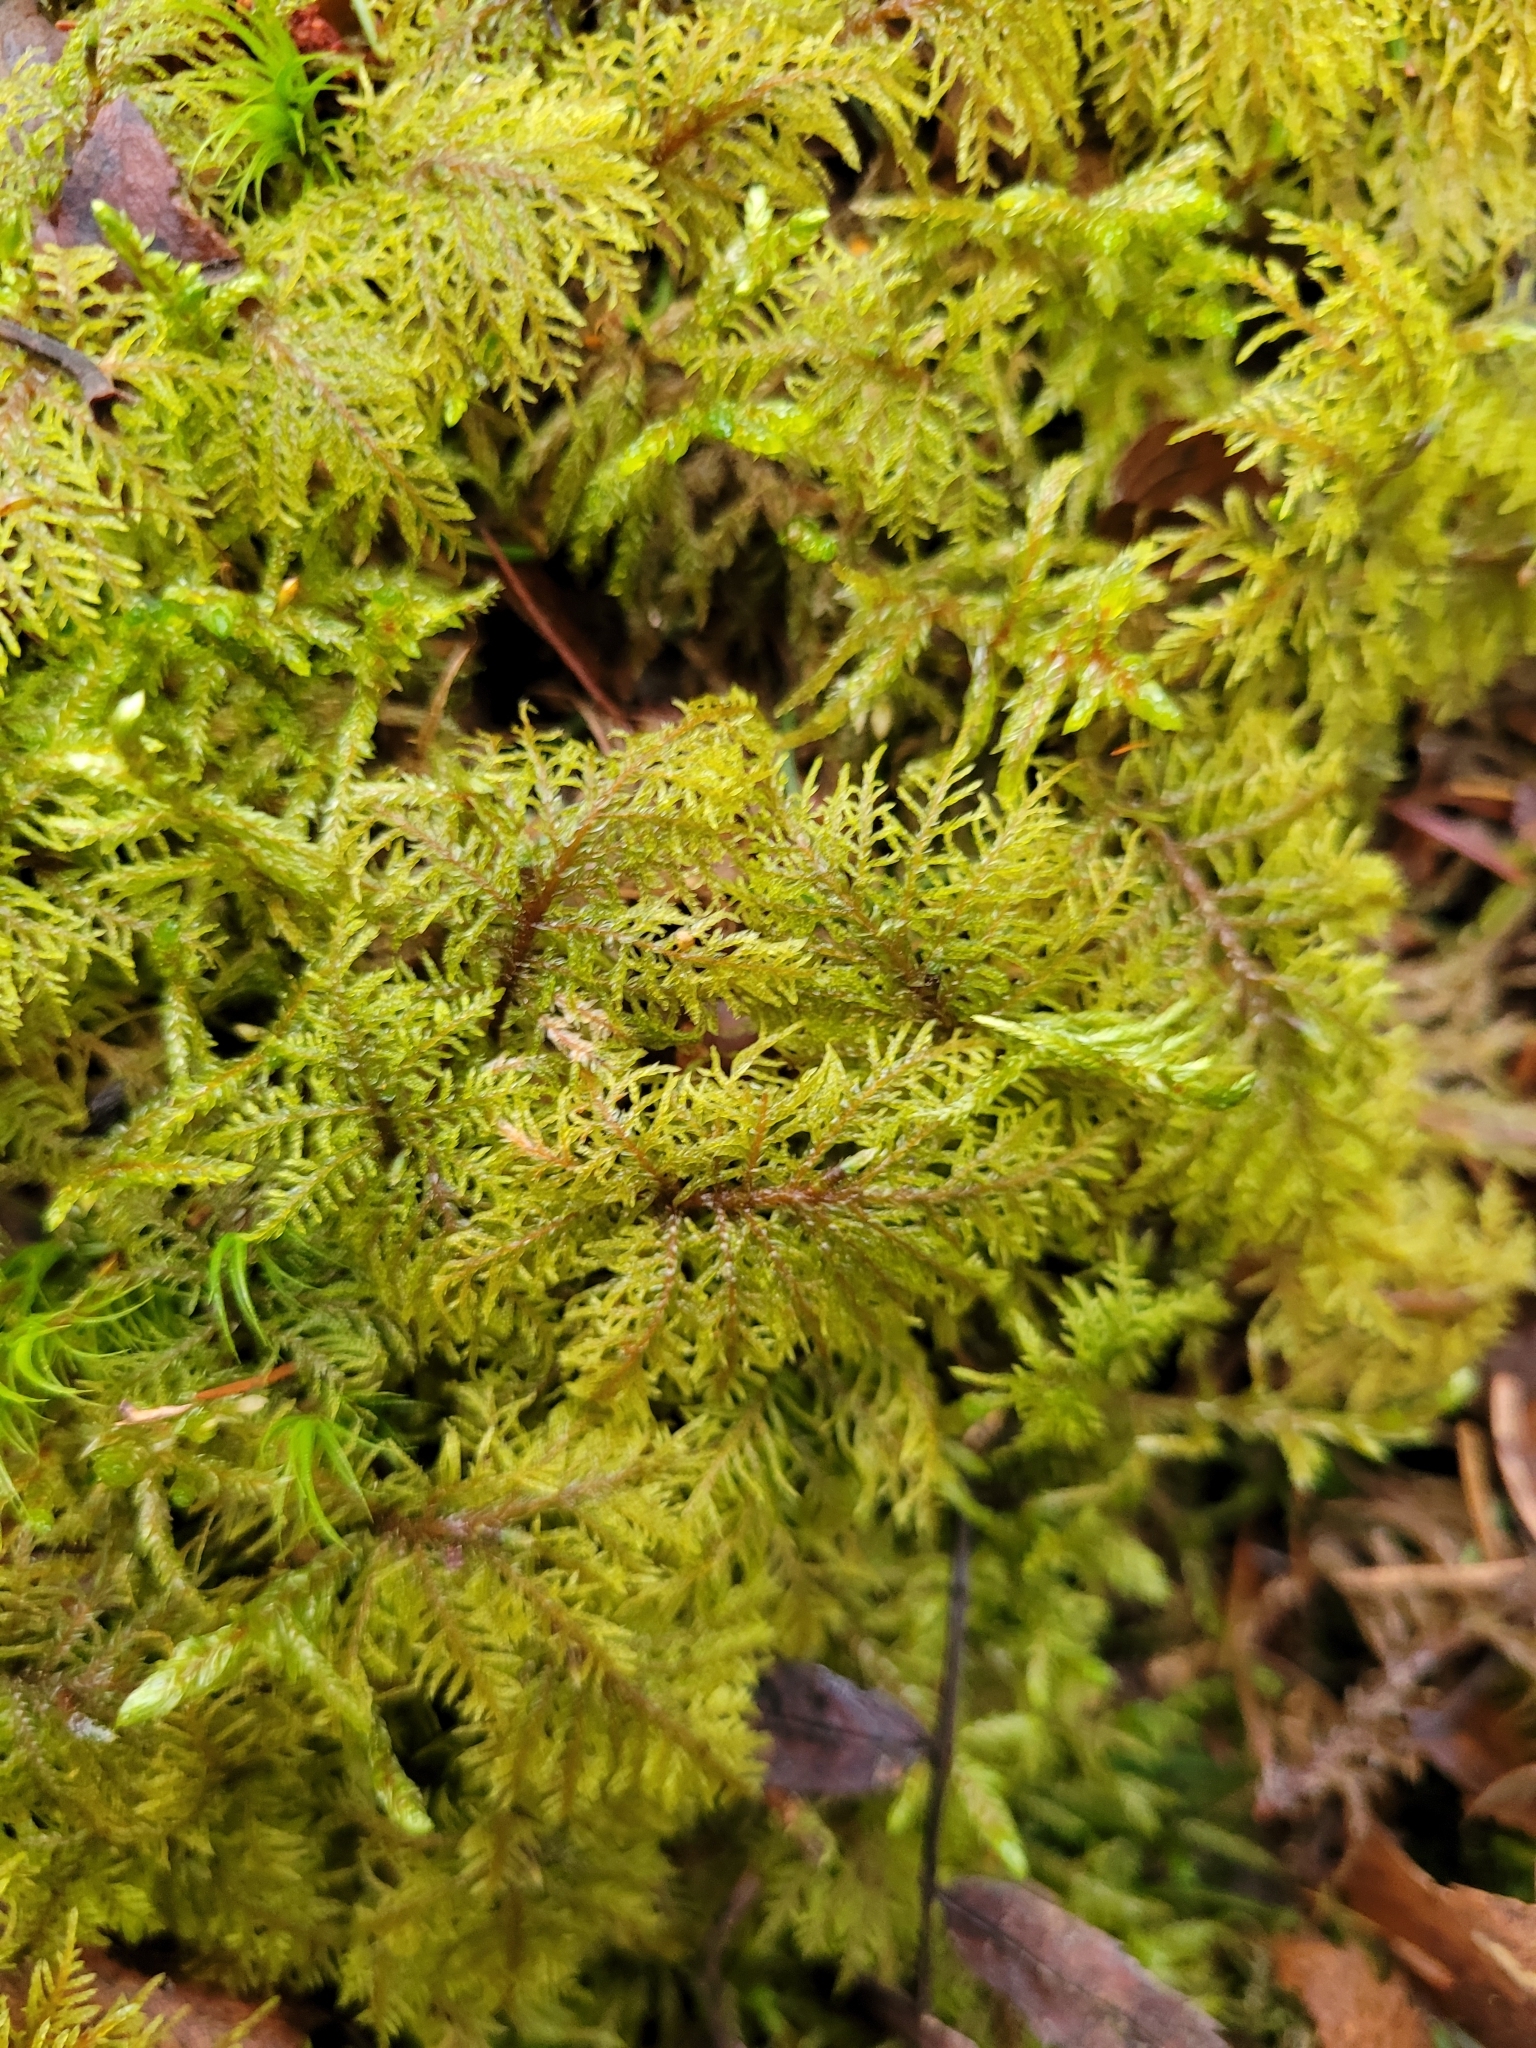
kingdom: Plantae
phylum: Bryophyta
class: Bryopsida
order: Hypnales
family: Hylocomiaceae
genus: Hylocomium
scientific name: Hylocomium splendens
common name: Stairstep moss
